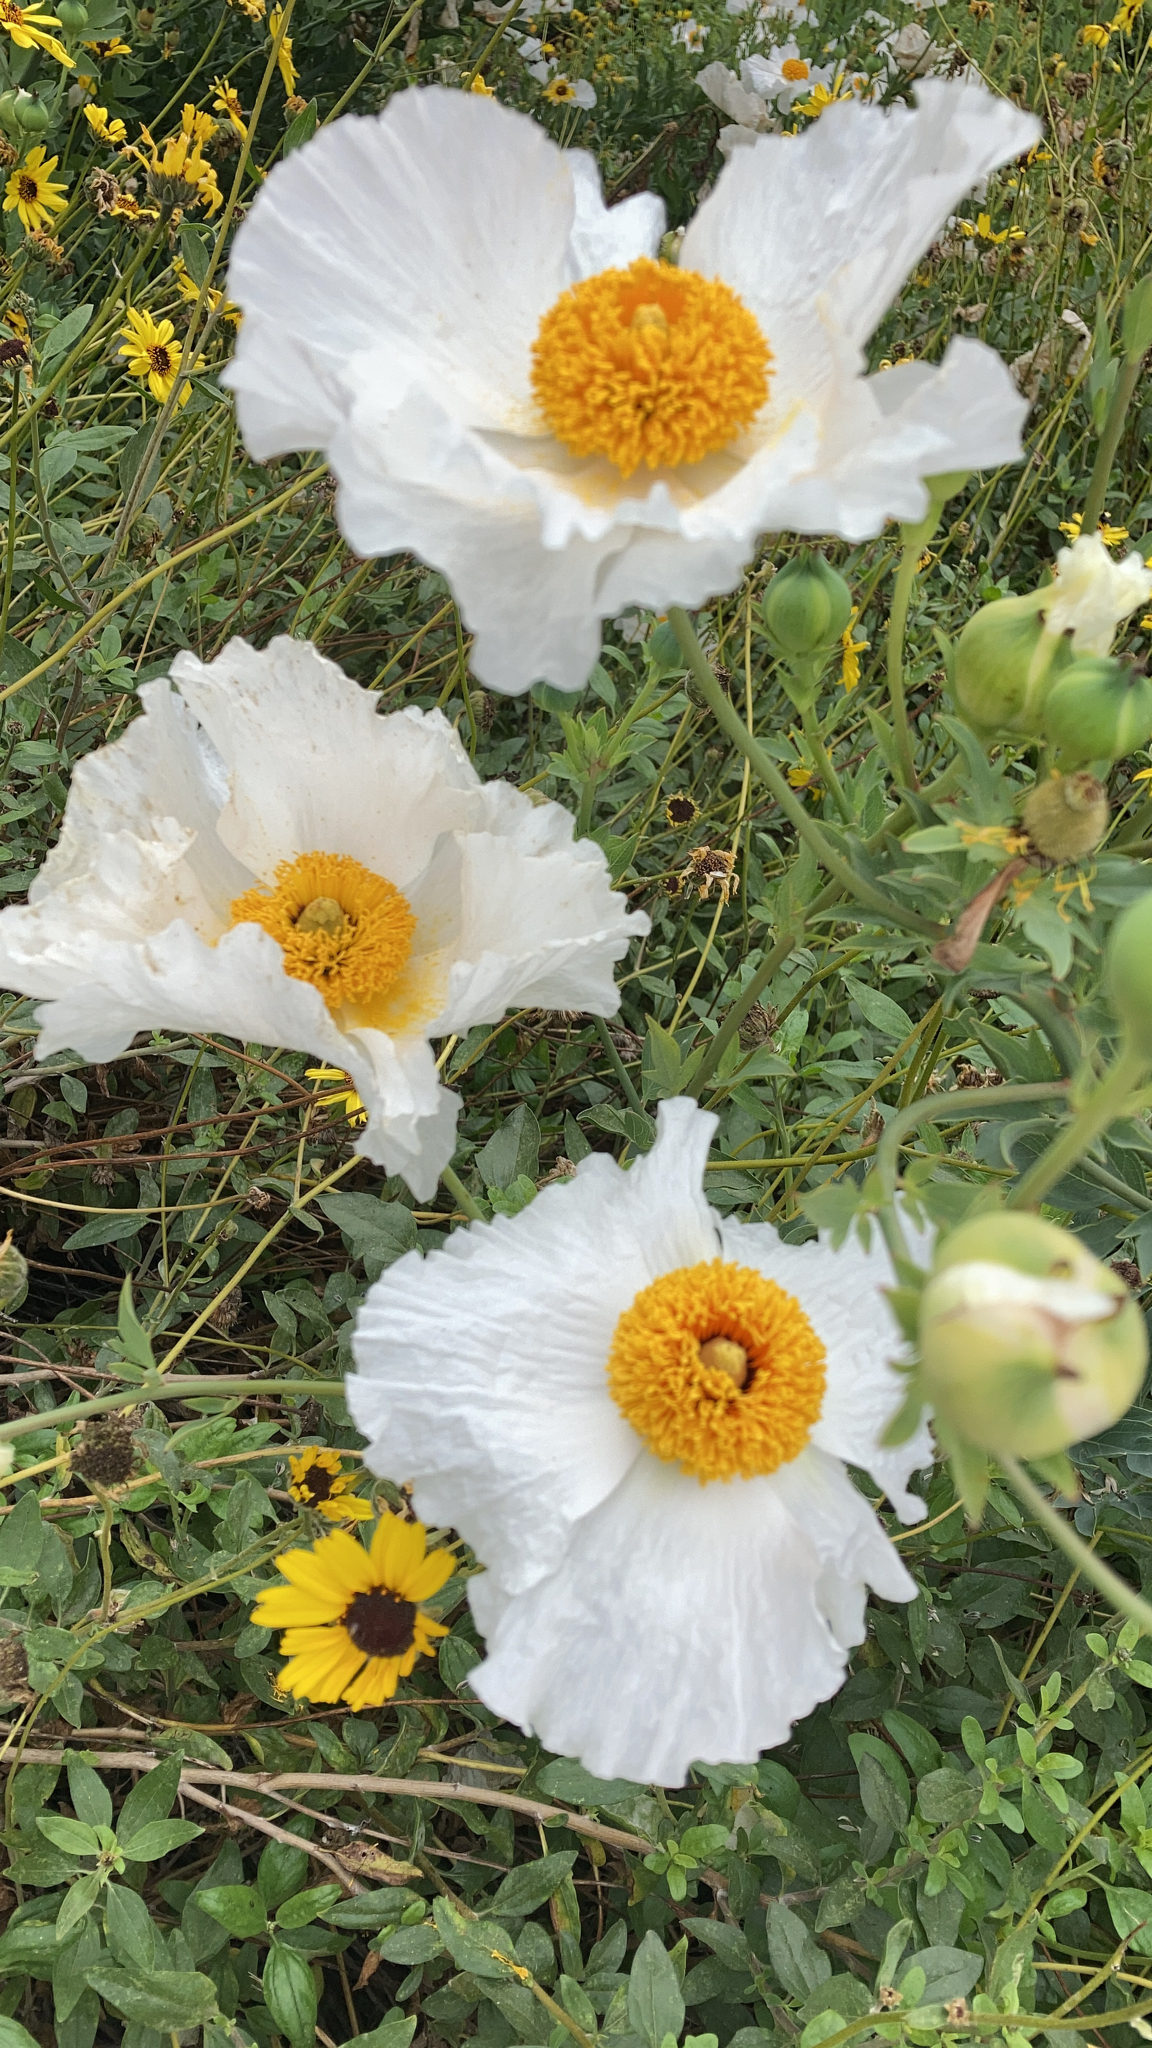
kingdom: Plantae
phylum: Tracheophyta
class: Magnoliopsida
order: Ranunculales
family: Papaveraceae
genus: Romneya
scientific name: Romneya coulteri
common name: California tree-poppy
